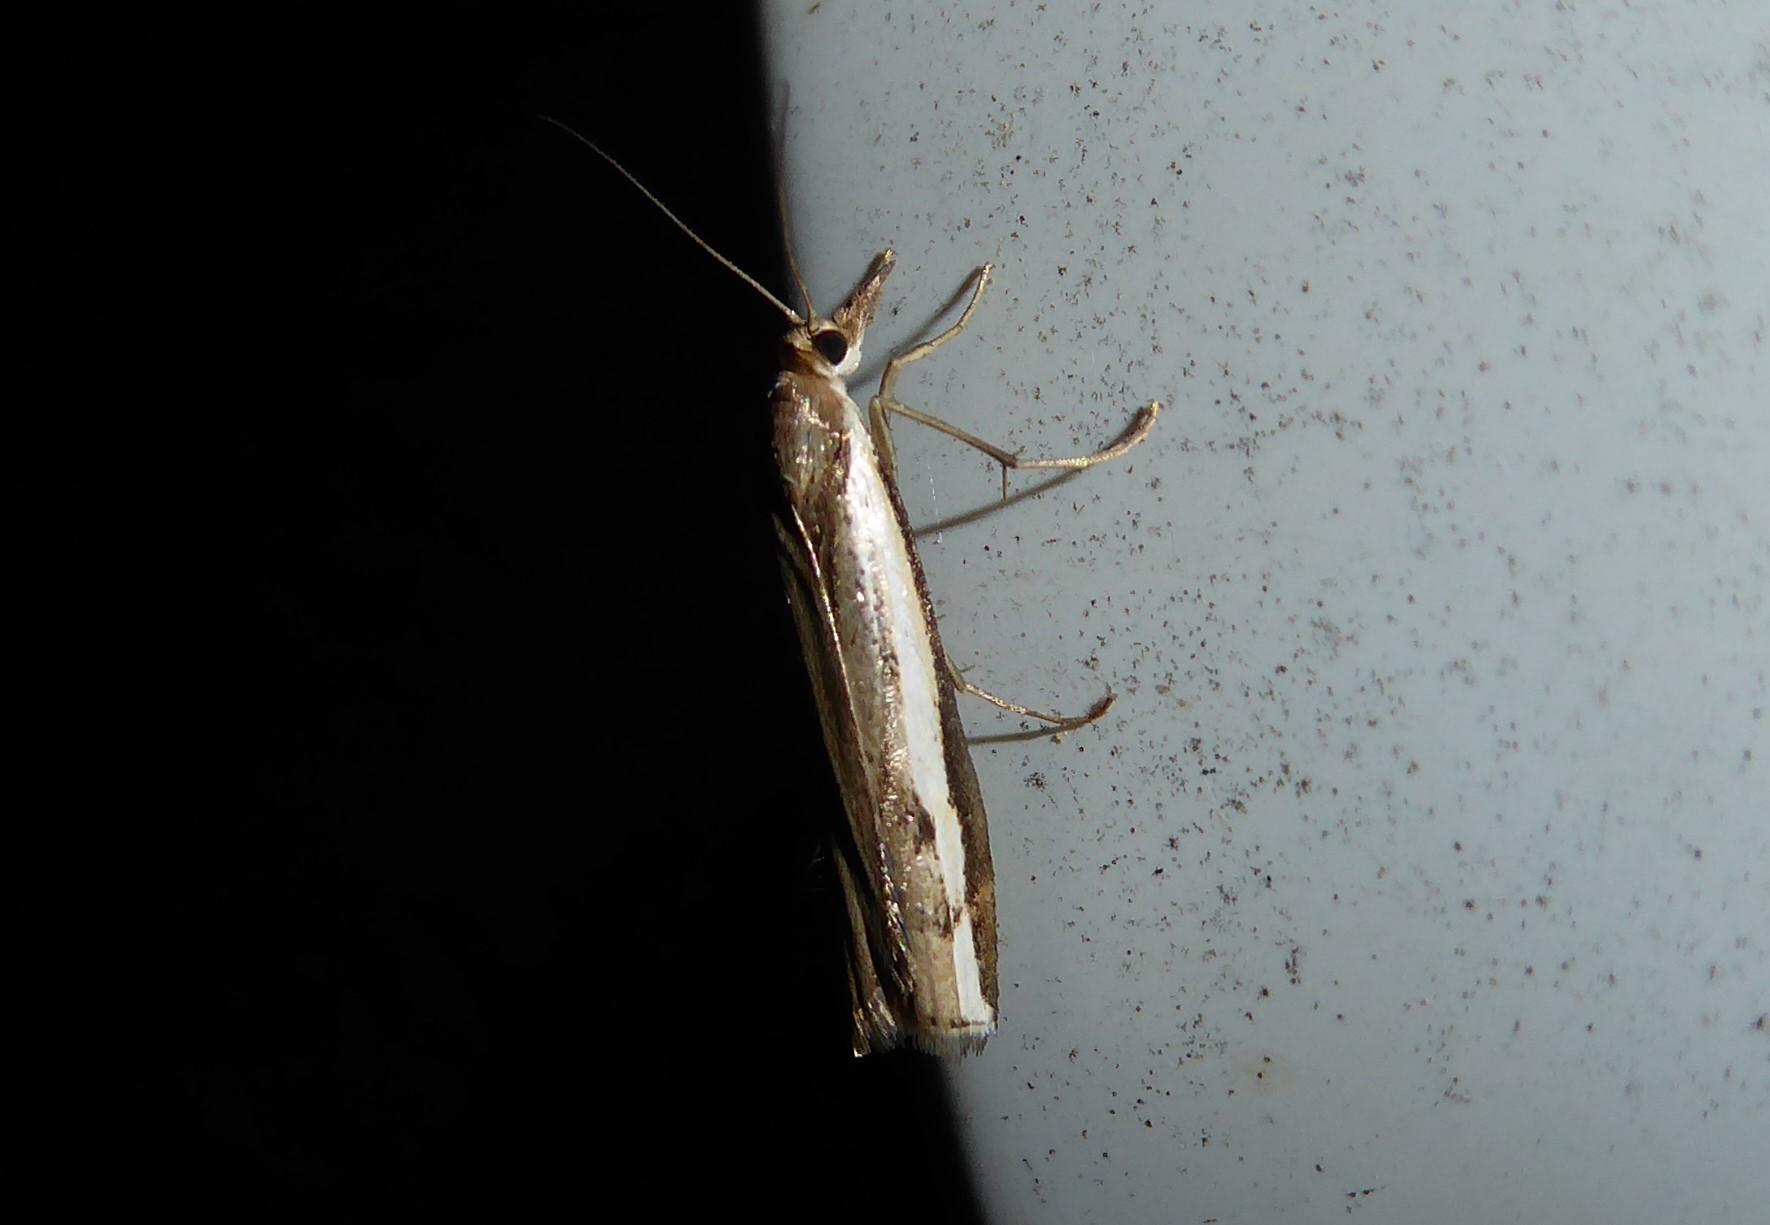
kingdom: Animalia
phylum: Arthropoda
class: Insecta
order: Lepidoptera
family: Crambidae
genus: Orocrambus
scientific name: Orocrambus flexuosellus
